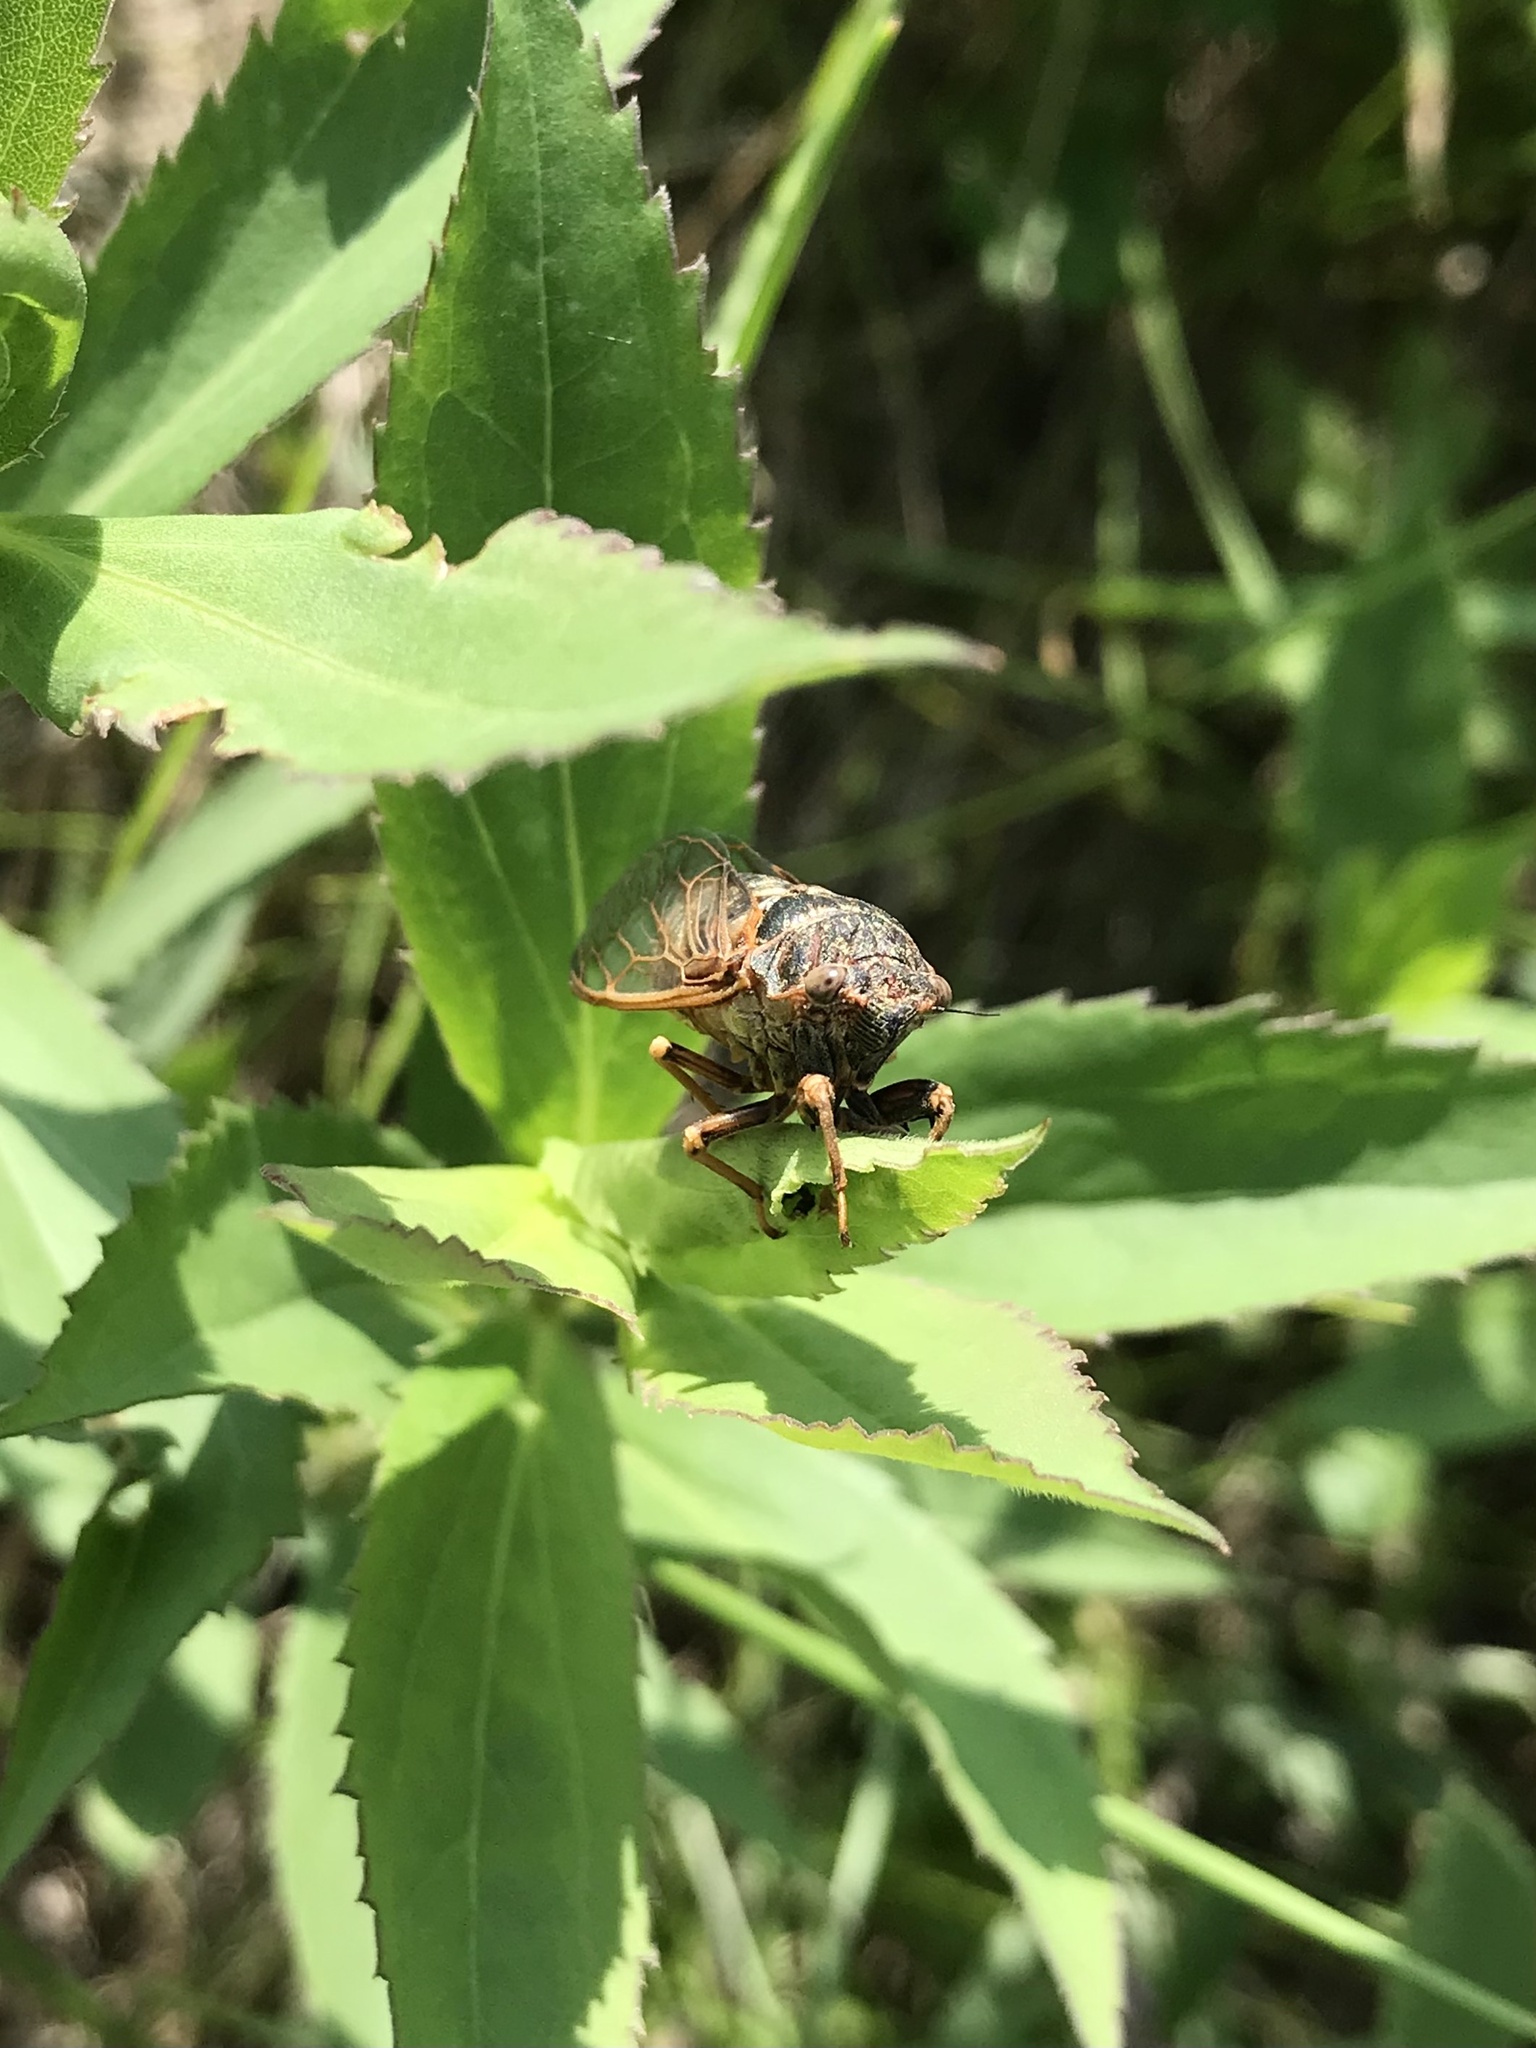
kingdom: Animalia
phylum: Arthropoda
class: Insecta
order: Hemiptera
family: Cicadidae
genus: Okanagana
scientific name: Okanagana balli
